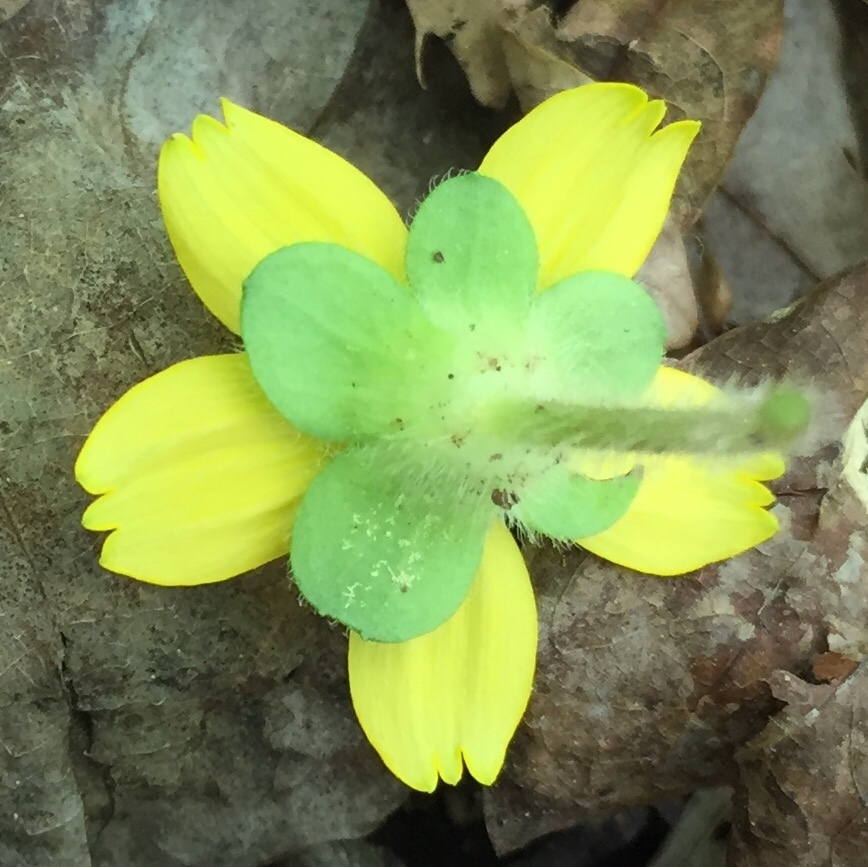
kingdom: Plantae
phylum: Tracheophyta
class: Magnoliopsida
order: Asterales
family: Asteraceae
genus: Chrysogonum
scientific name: Chrysogonum virginianum
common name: Golden-knee
